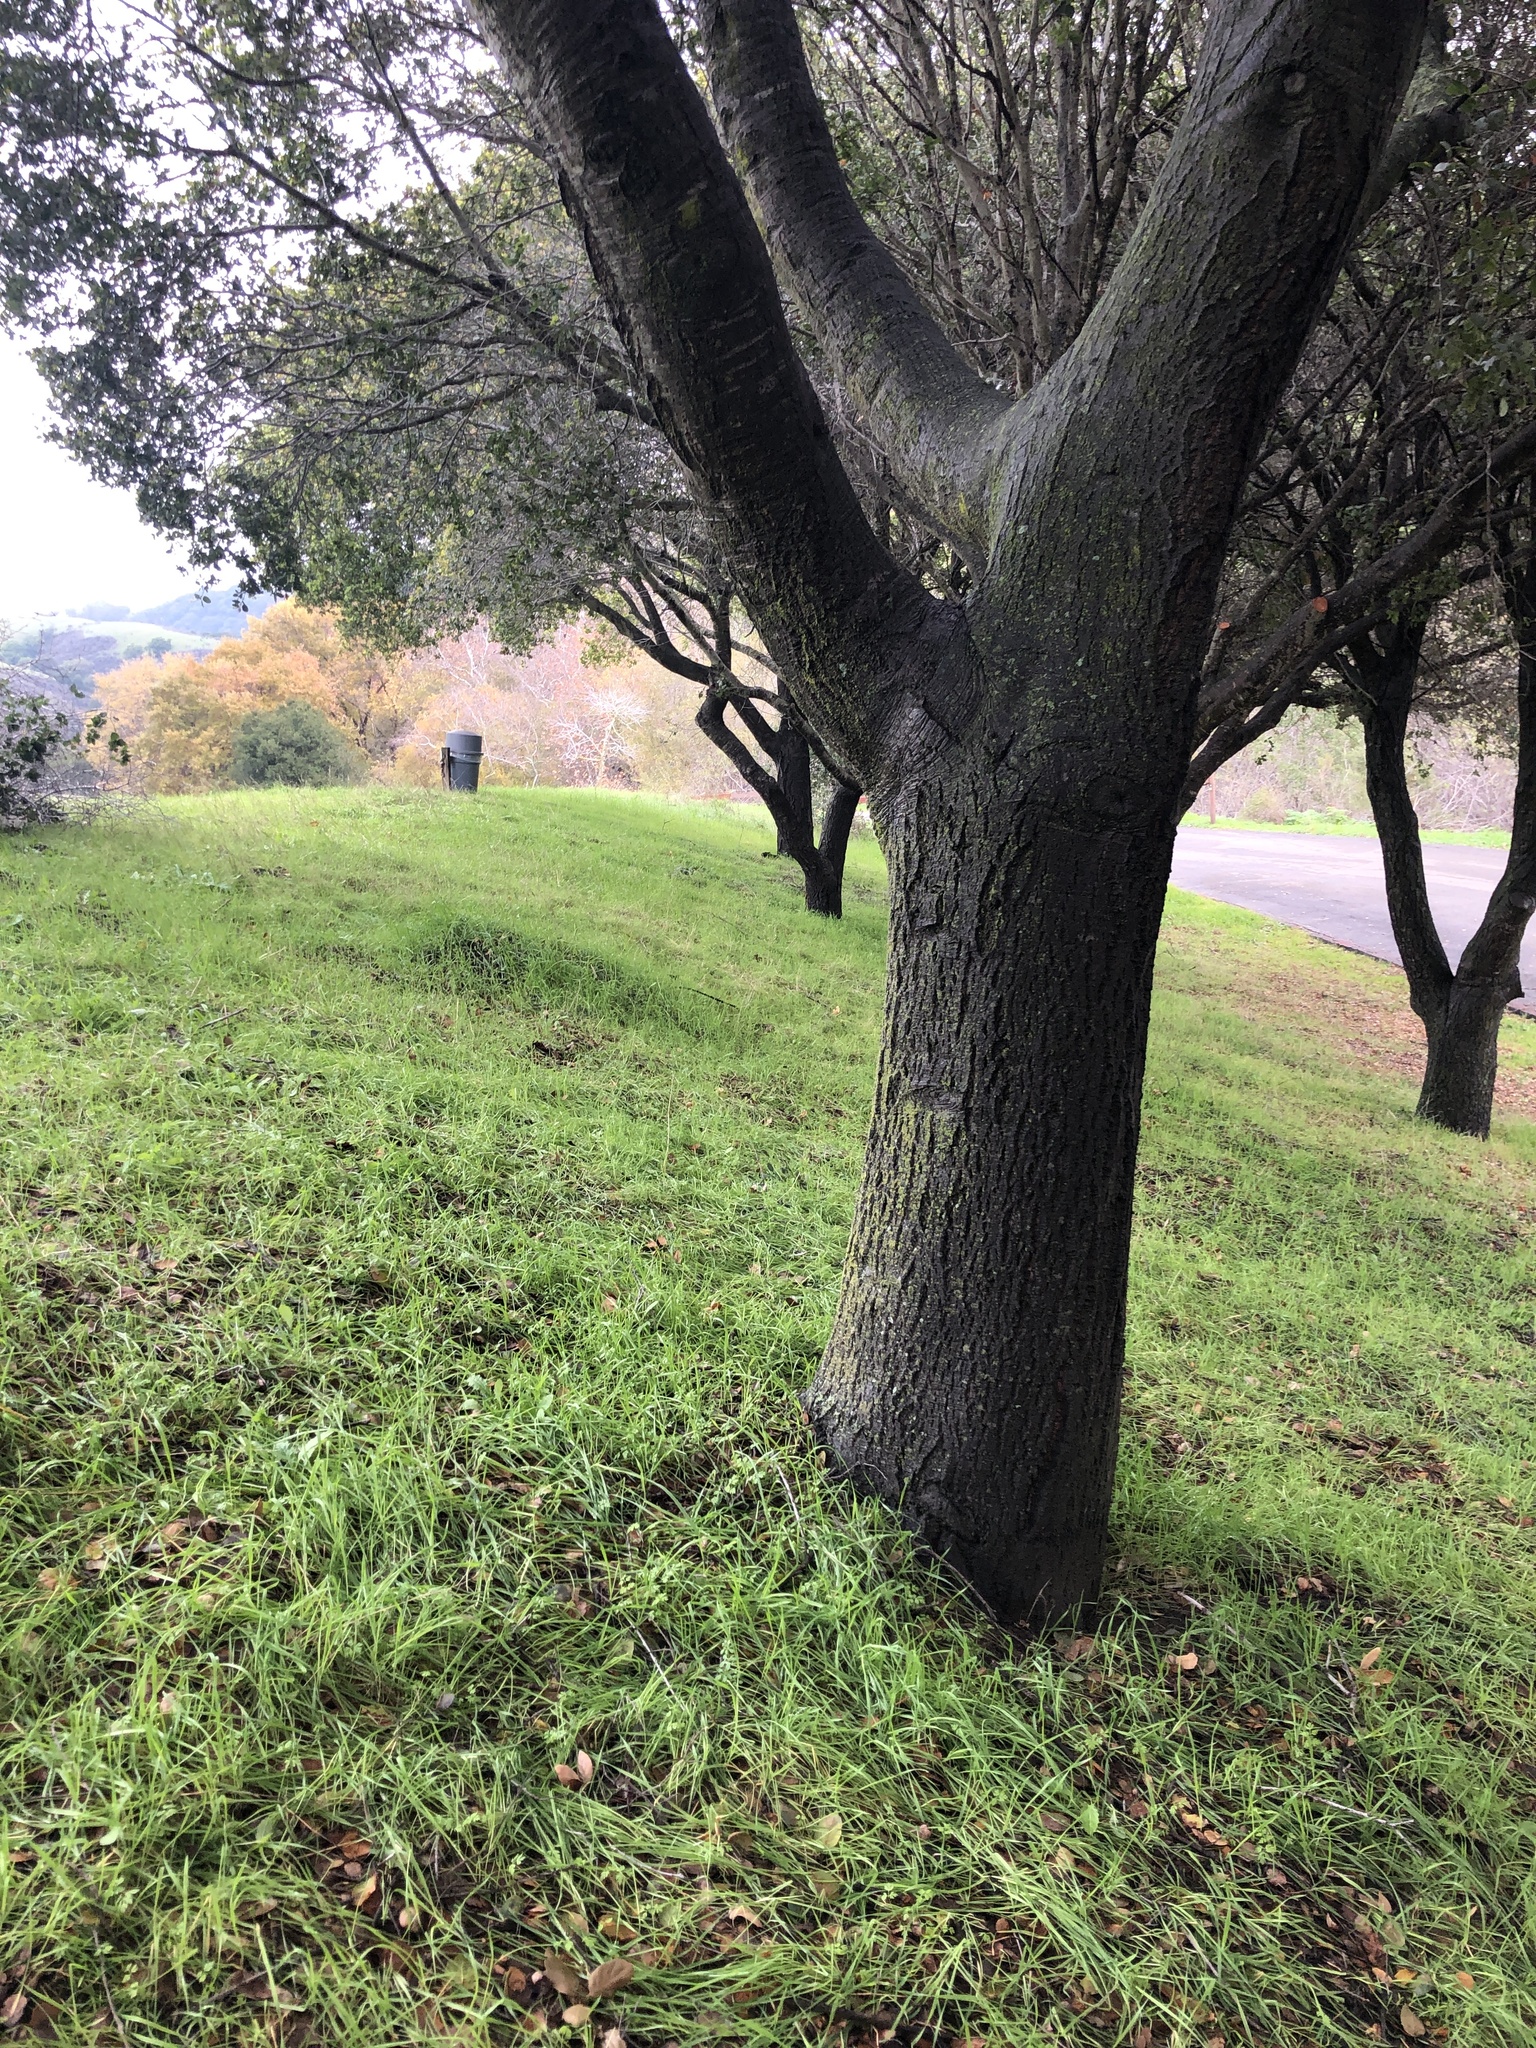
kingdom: Fungi
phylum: Basidiomycota
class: Agaricomycetes
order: Russulales
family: Russulaceae
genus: Lactarius
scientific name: Lactarius rufulus
